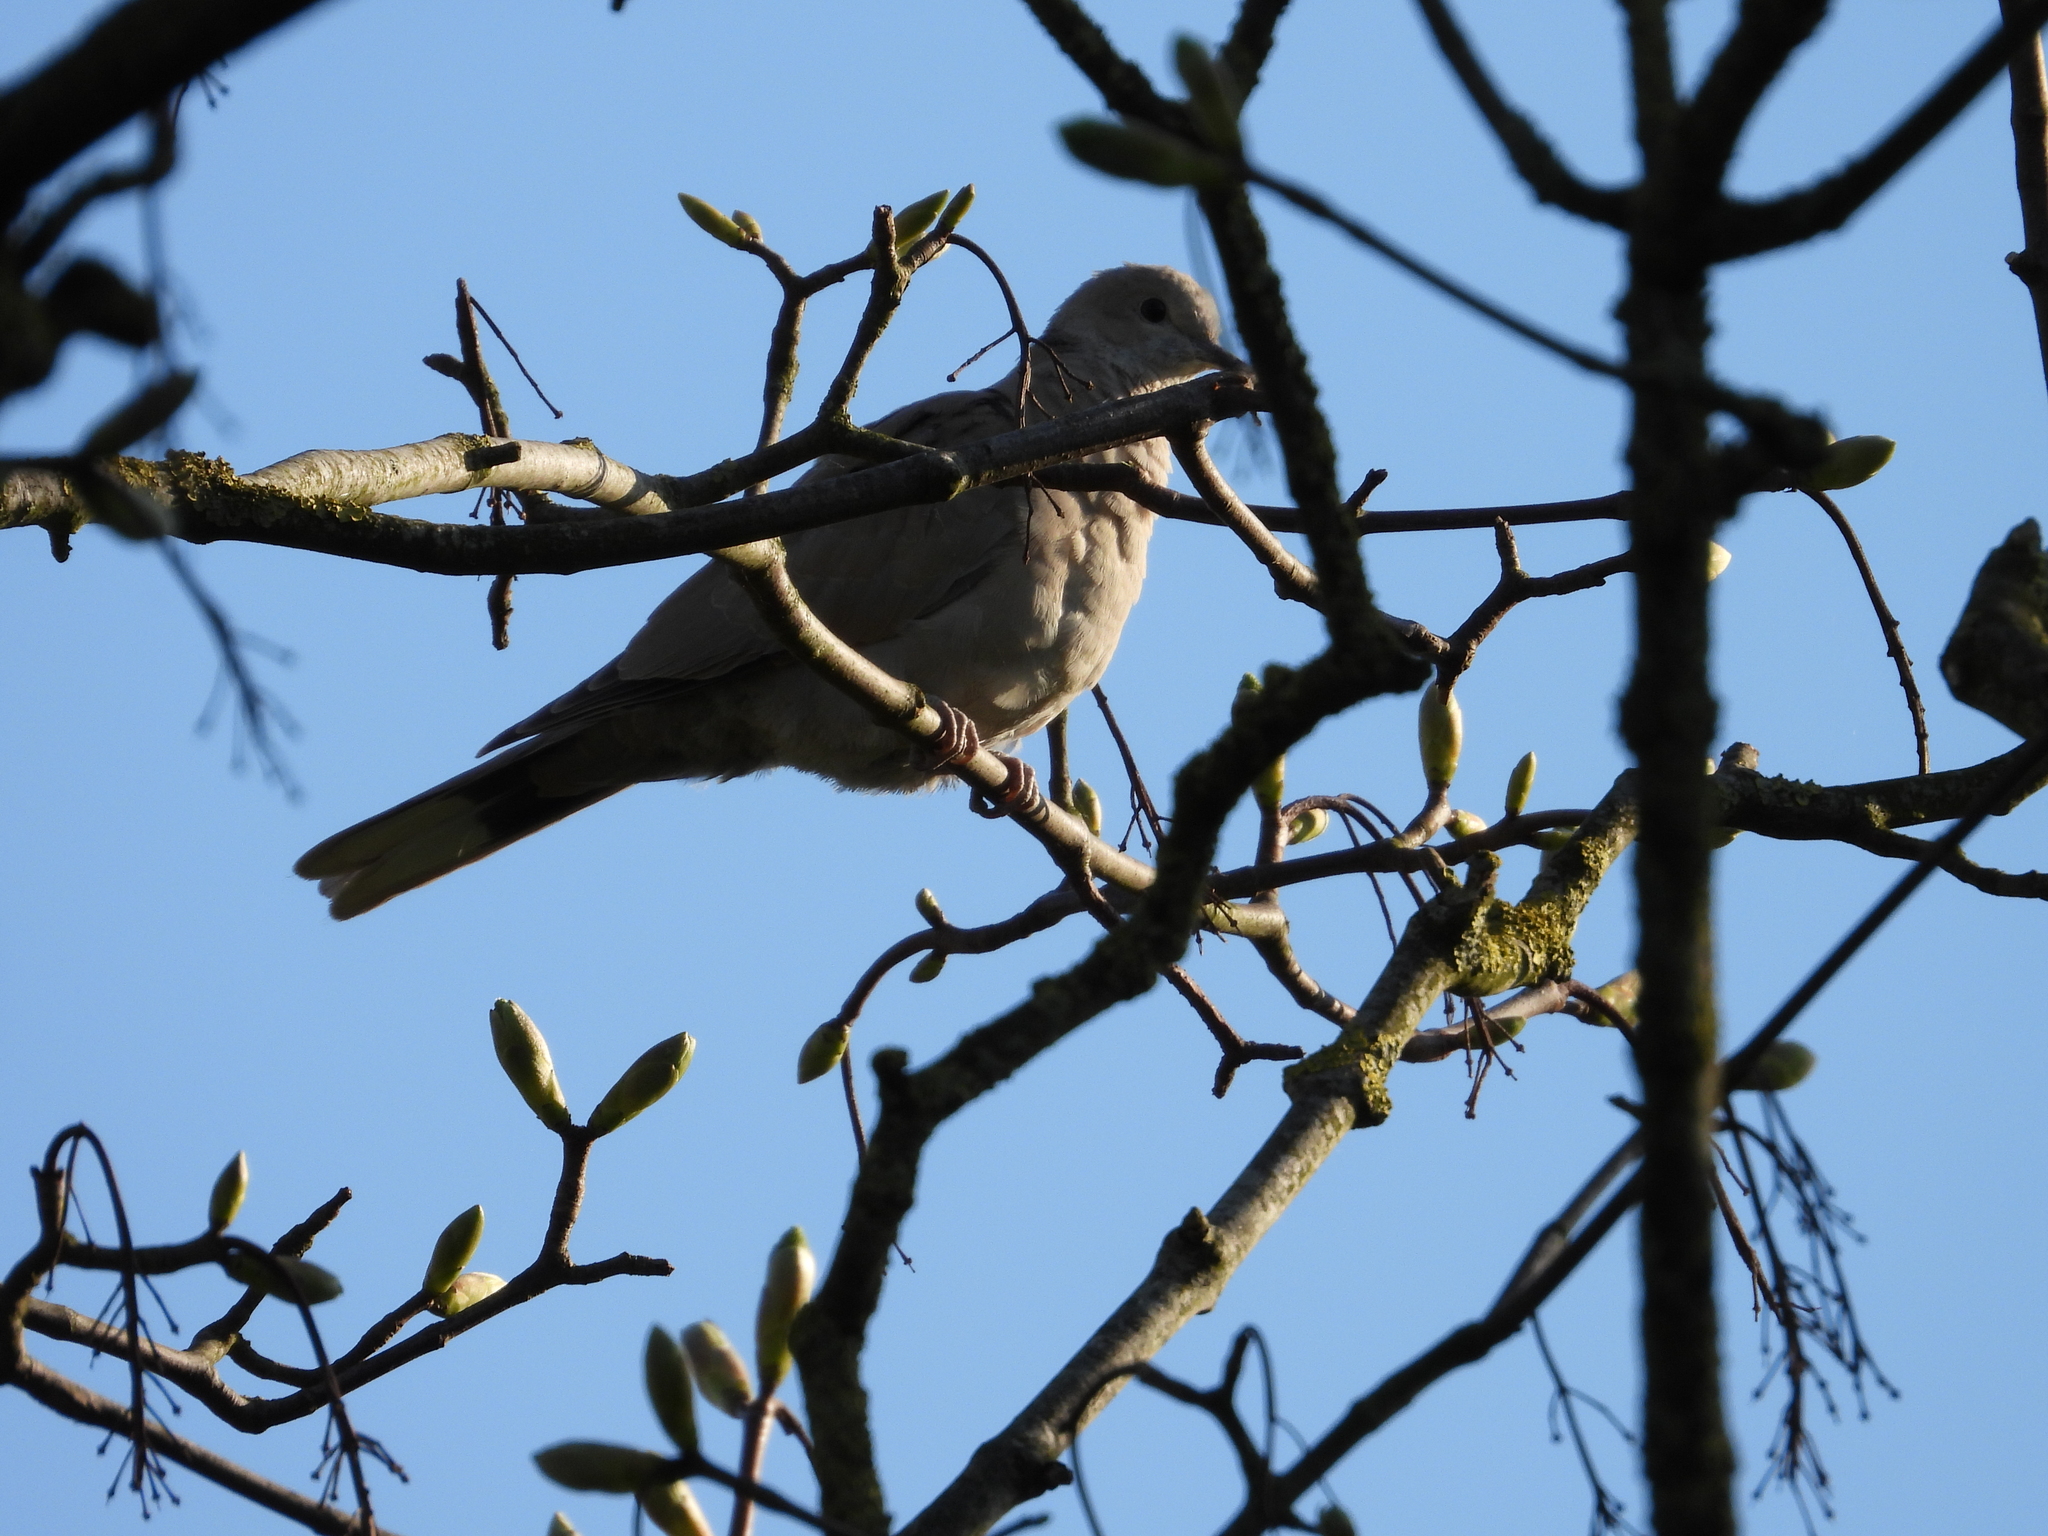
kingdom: Animalia
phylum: Chordata
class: Aves
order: Columbiformes
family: Columbidae
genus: Streptopelia
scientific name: Streptopelia decaocto
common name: Eurasian collared dove
